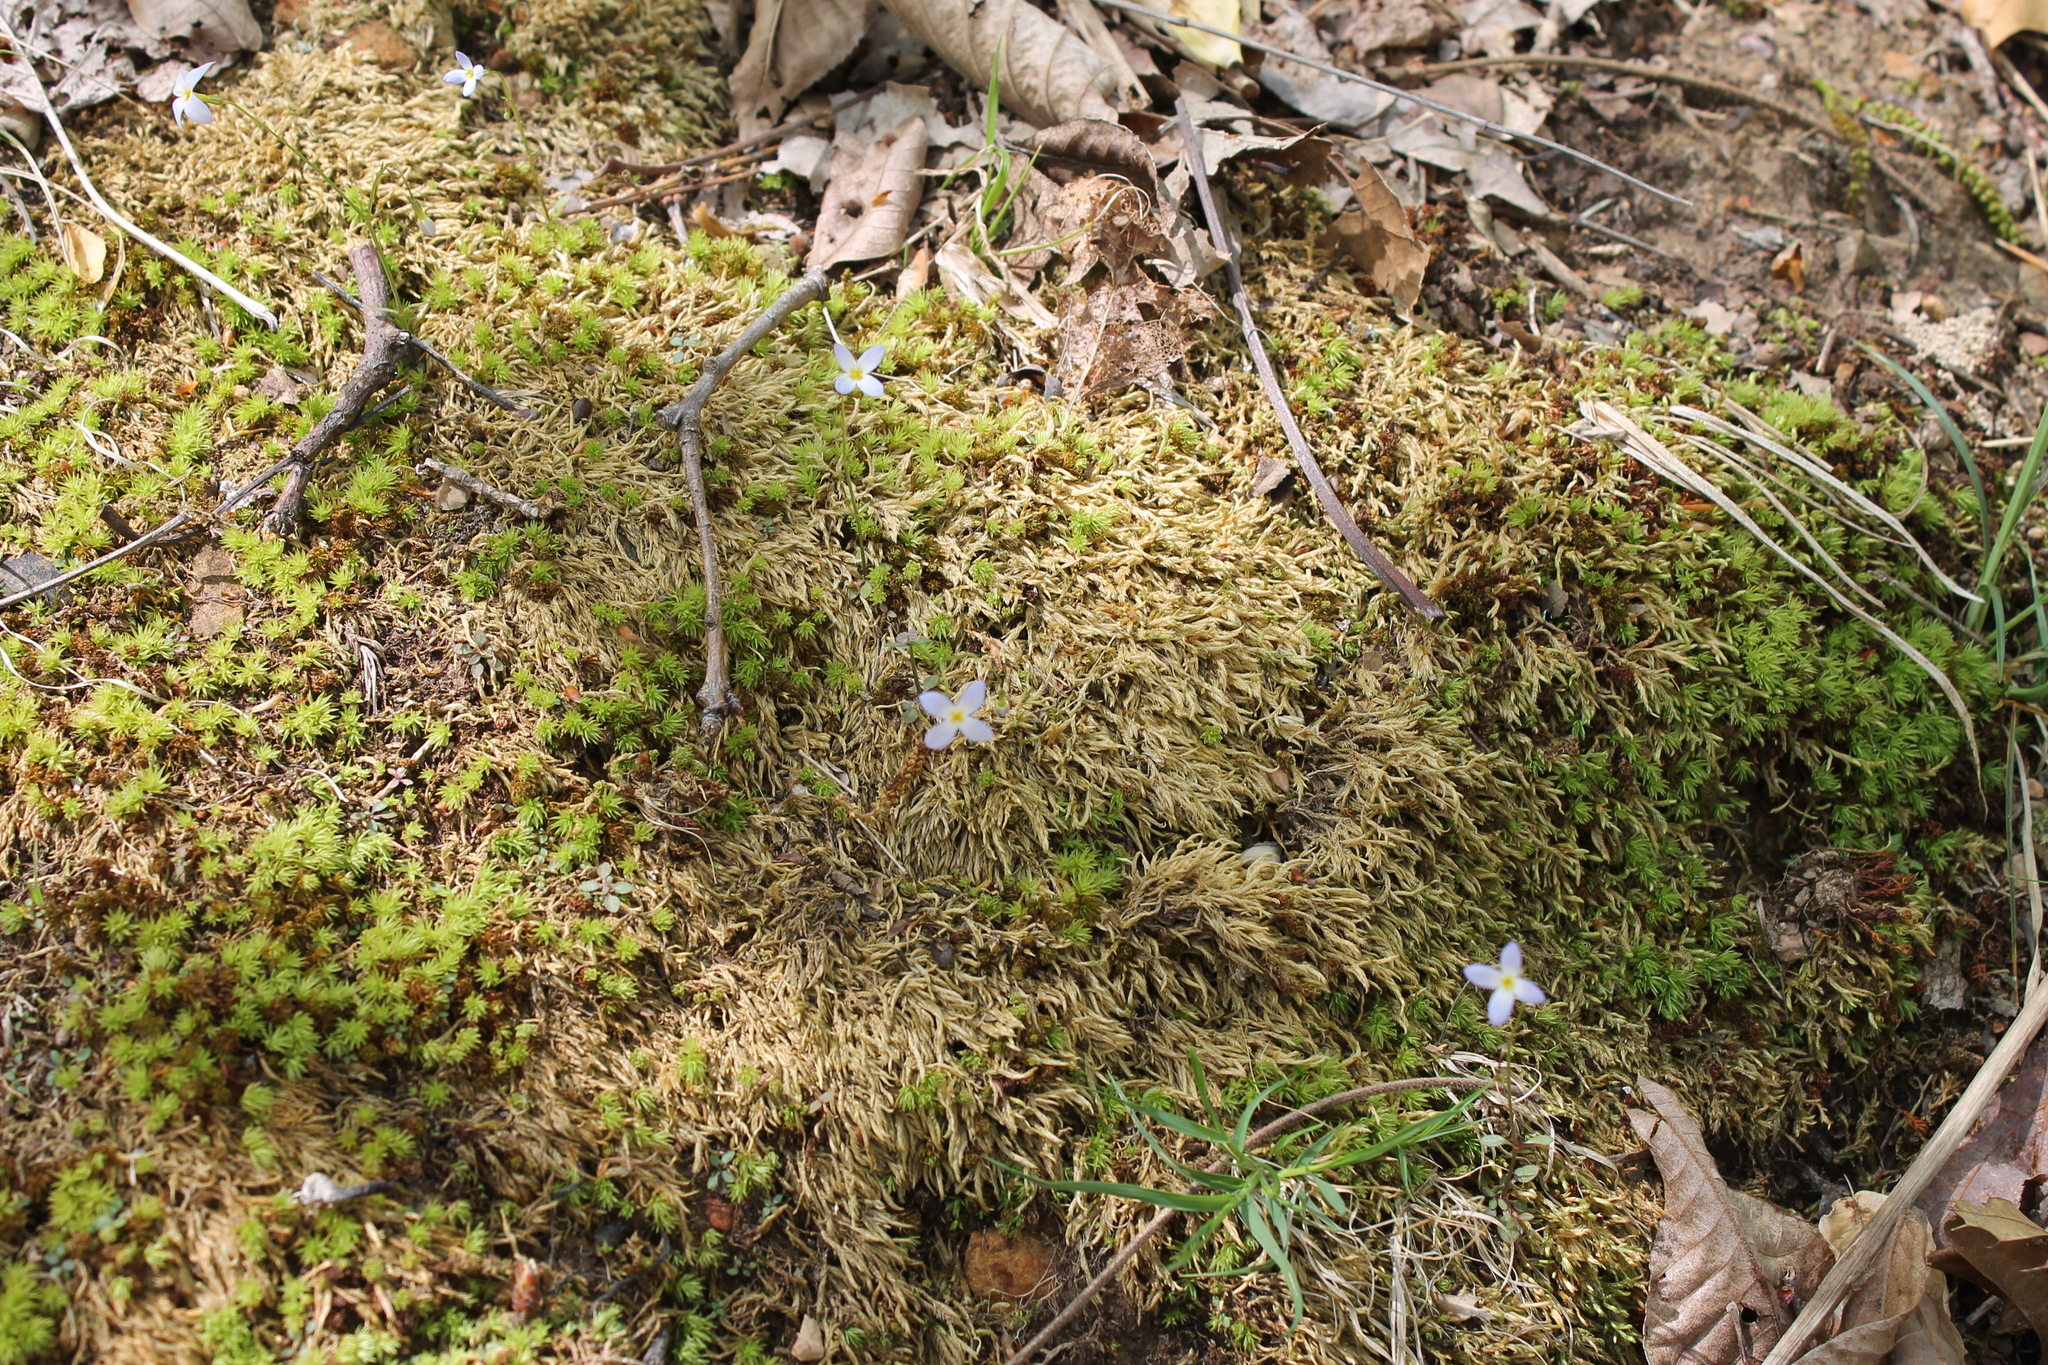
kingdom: Plantae
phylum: Tracheophyta
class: Magnoliopsida
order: Gentianales
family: Rubiaceae
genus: Houstonia
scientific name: Houstonia caerulea
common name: Bluets
